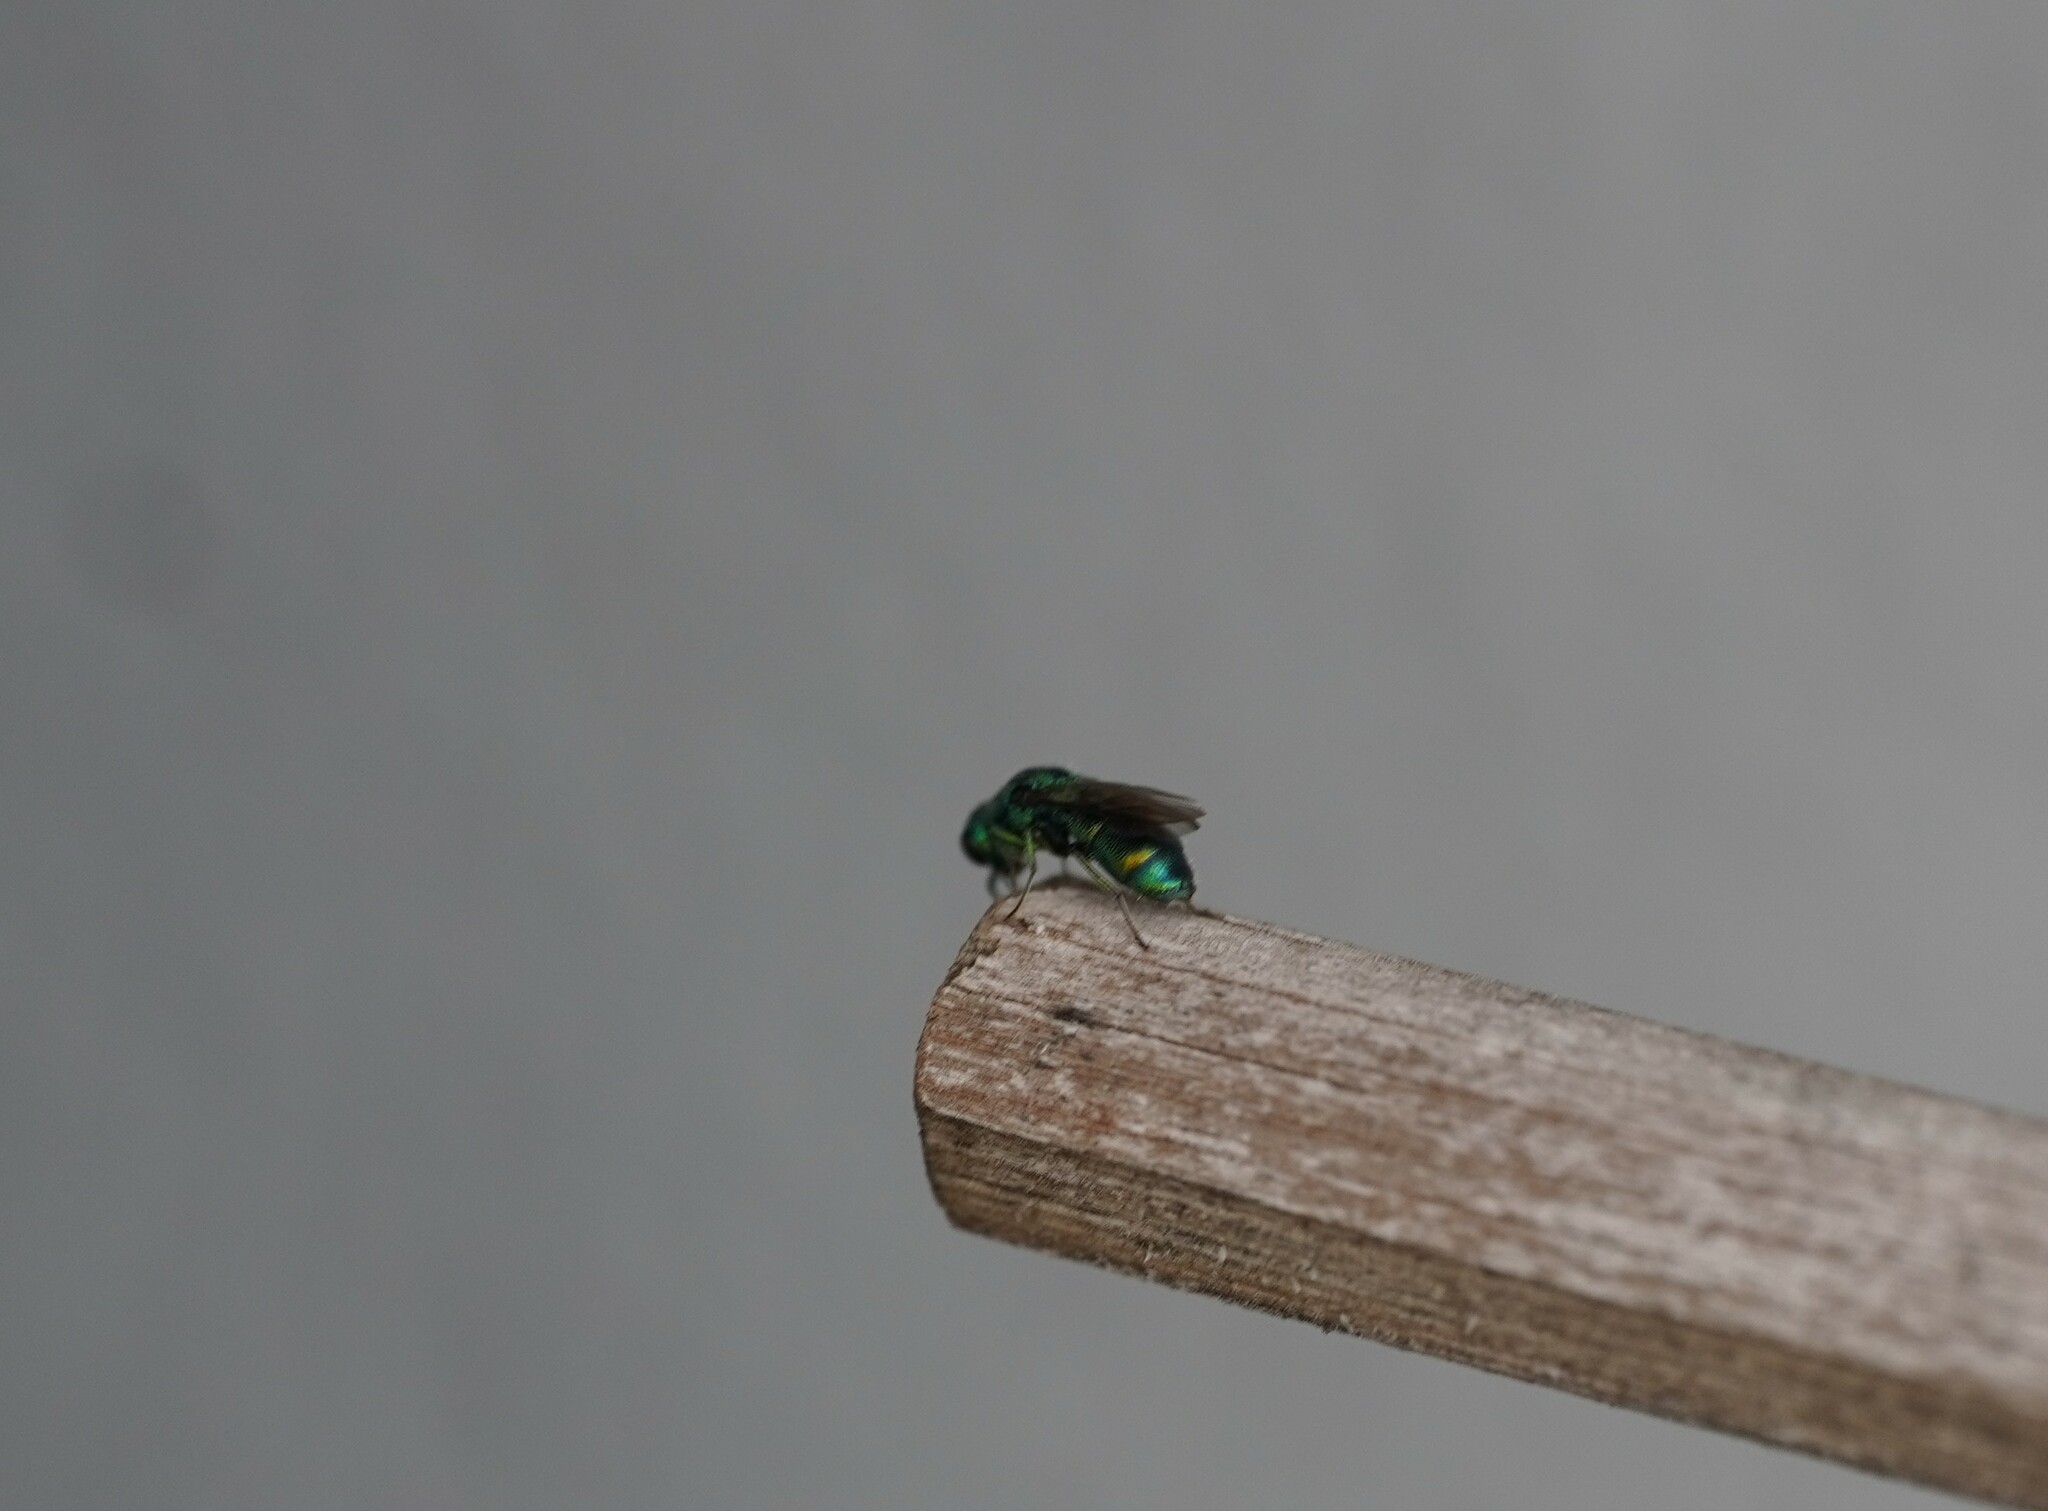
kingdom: Animalia
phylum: Arthropoda
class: Insecta
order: Hymenoptera
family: Pompilidae
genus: Pepsis
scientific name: Pepsis cyanea
